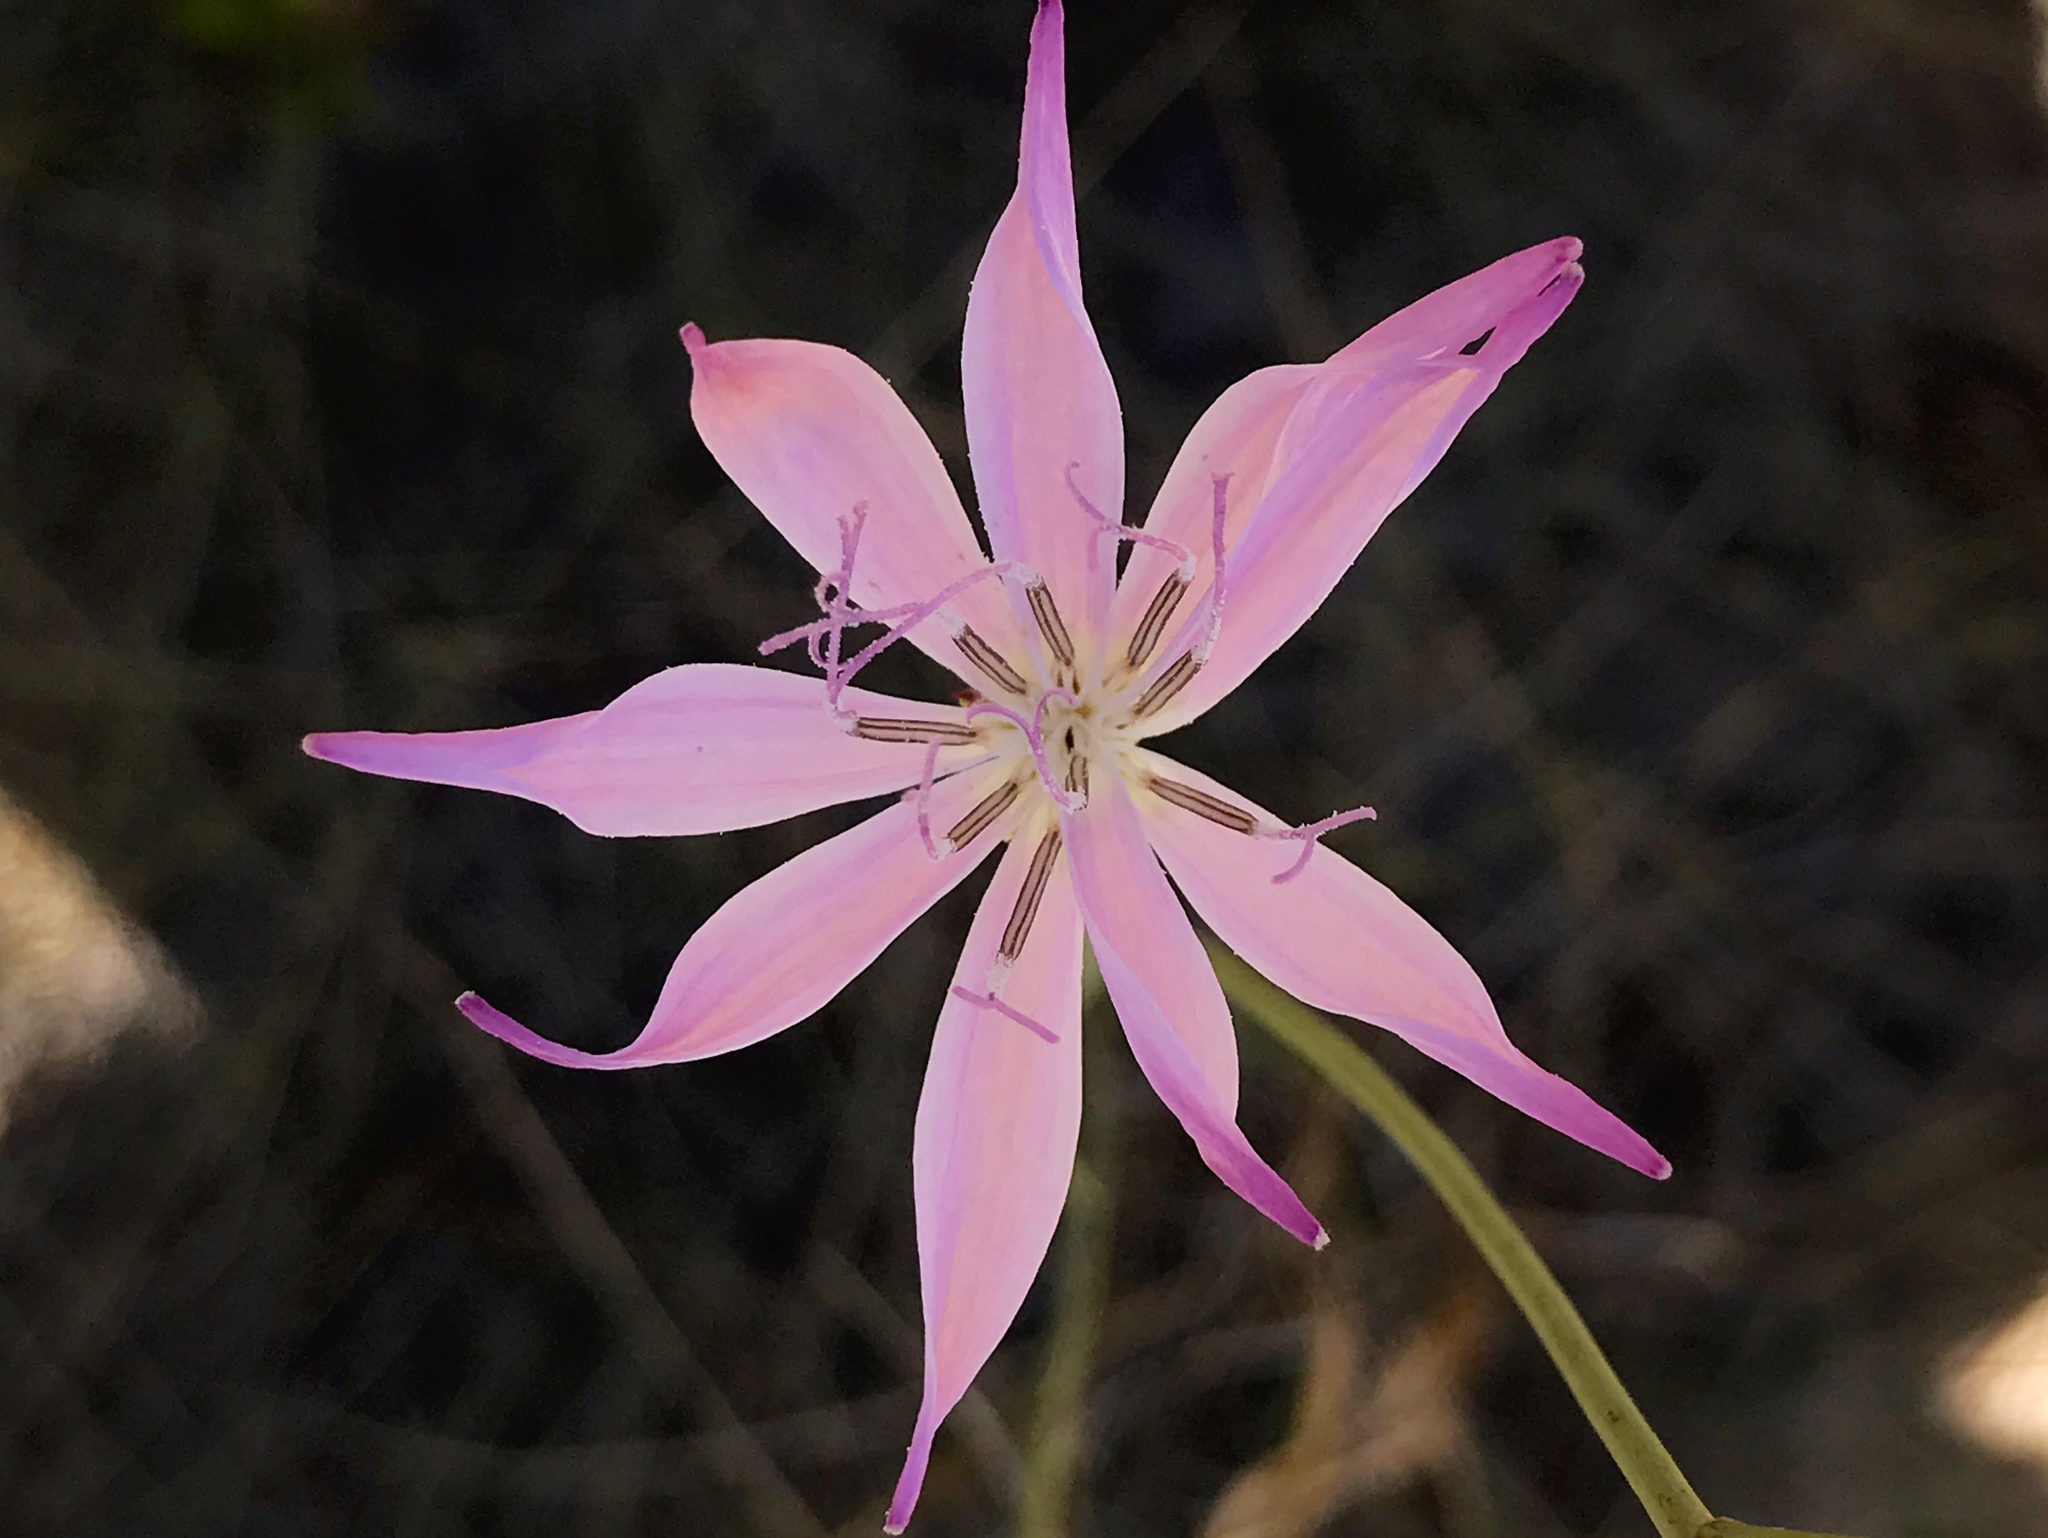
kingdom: Plantae
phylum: Tracheophyta
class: Magnoliopsida
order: Asterales
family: Asteraceae
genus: Lygodesmia
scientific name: Lygodesmia aphylla
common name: Rose-rush
